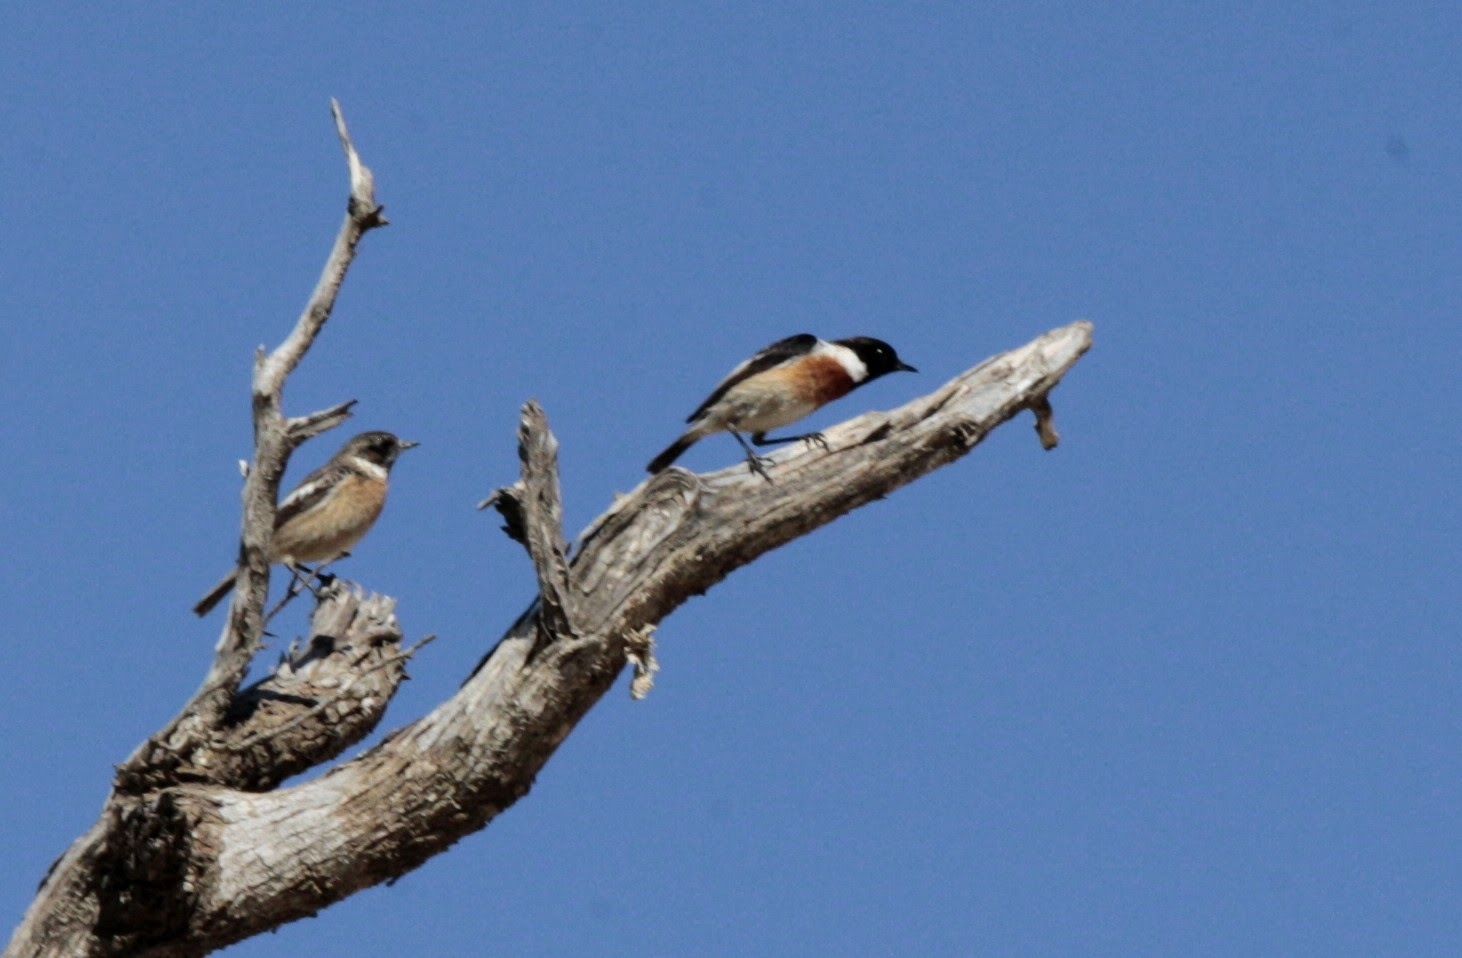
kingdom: Animalia
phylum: Chordata
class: Aves
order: Passeriformes
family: Muscicapidae
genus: Saxicola
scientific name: Saxicola rubicola
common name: European stonechat
